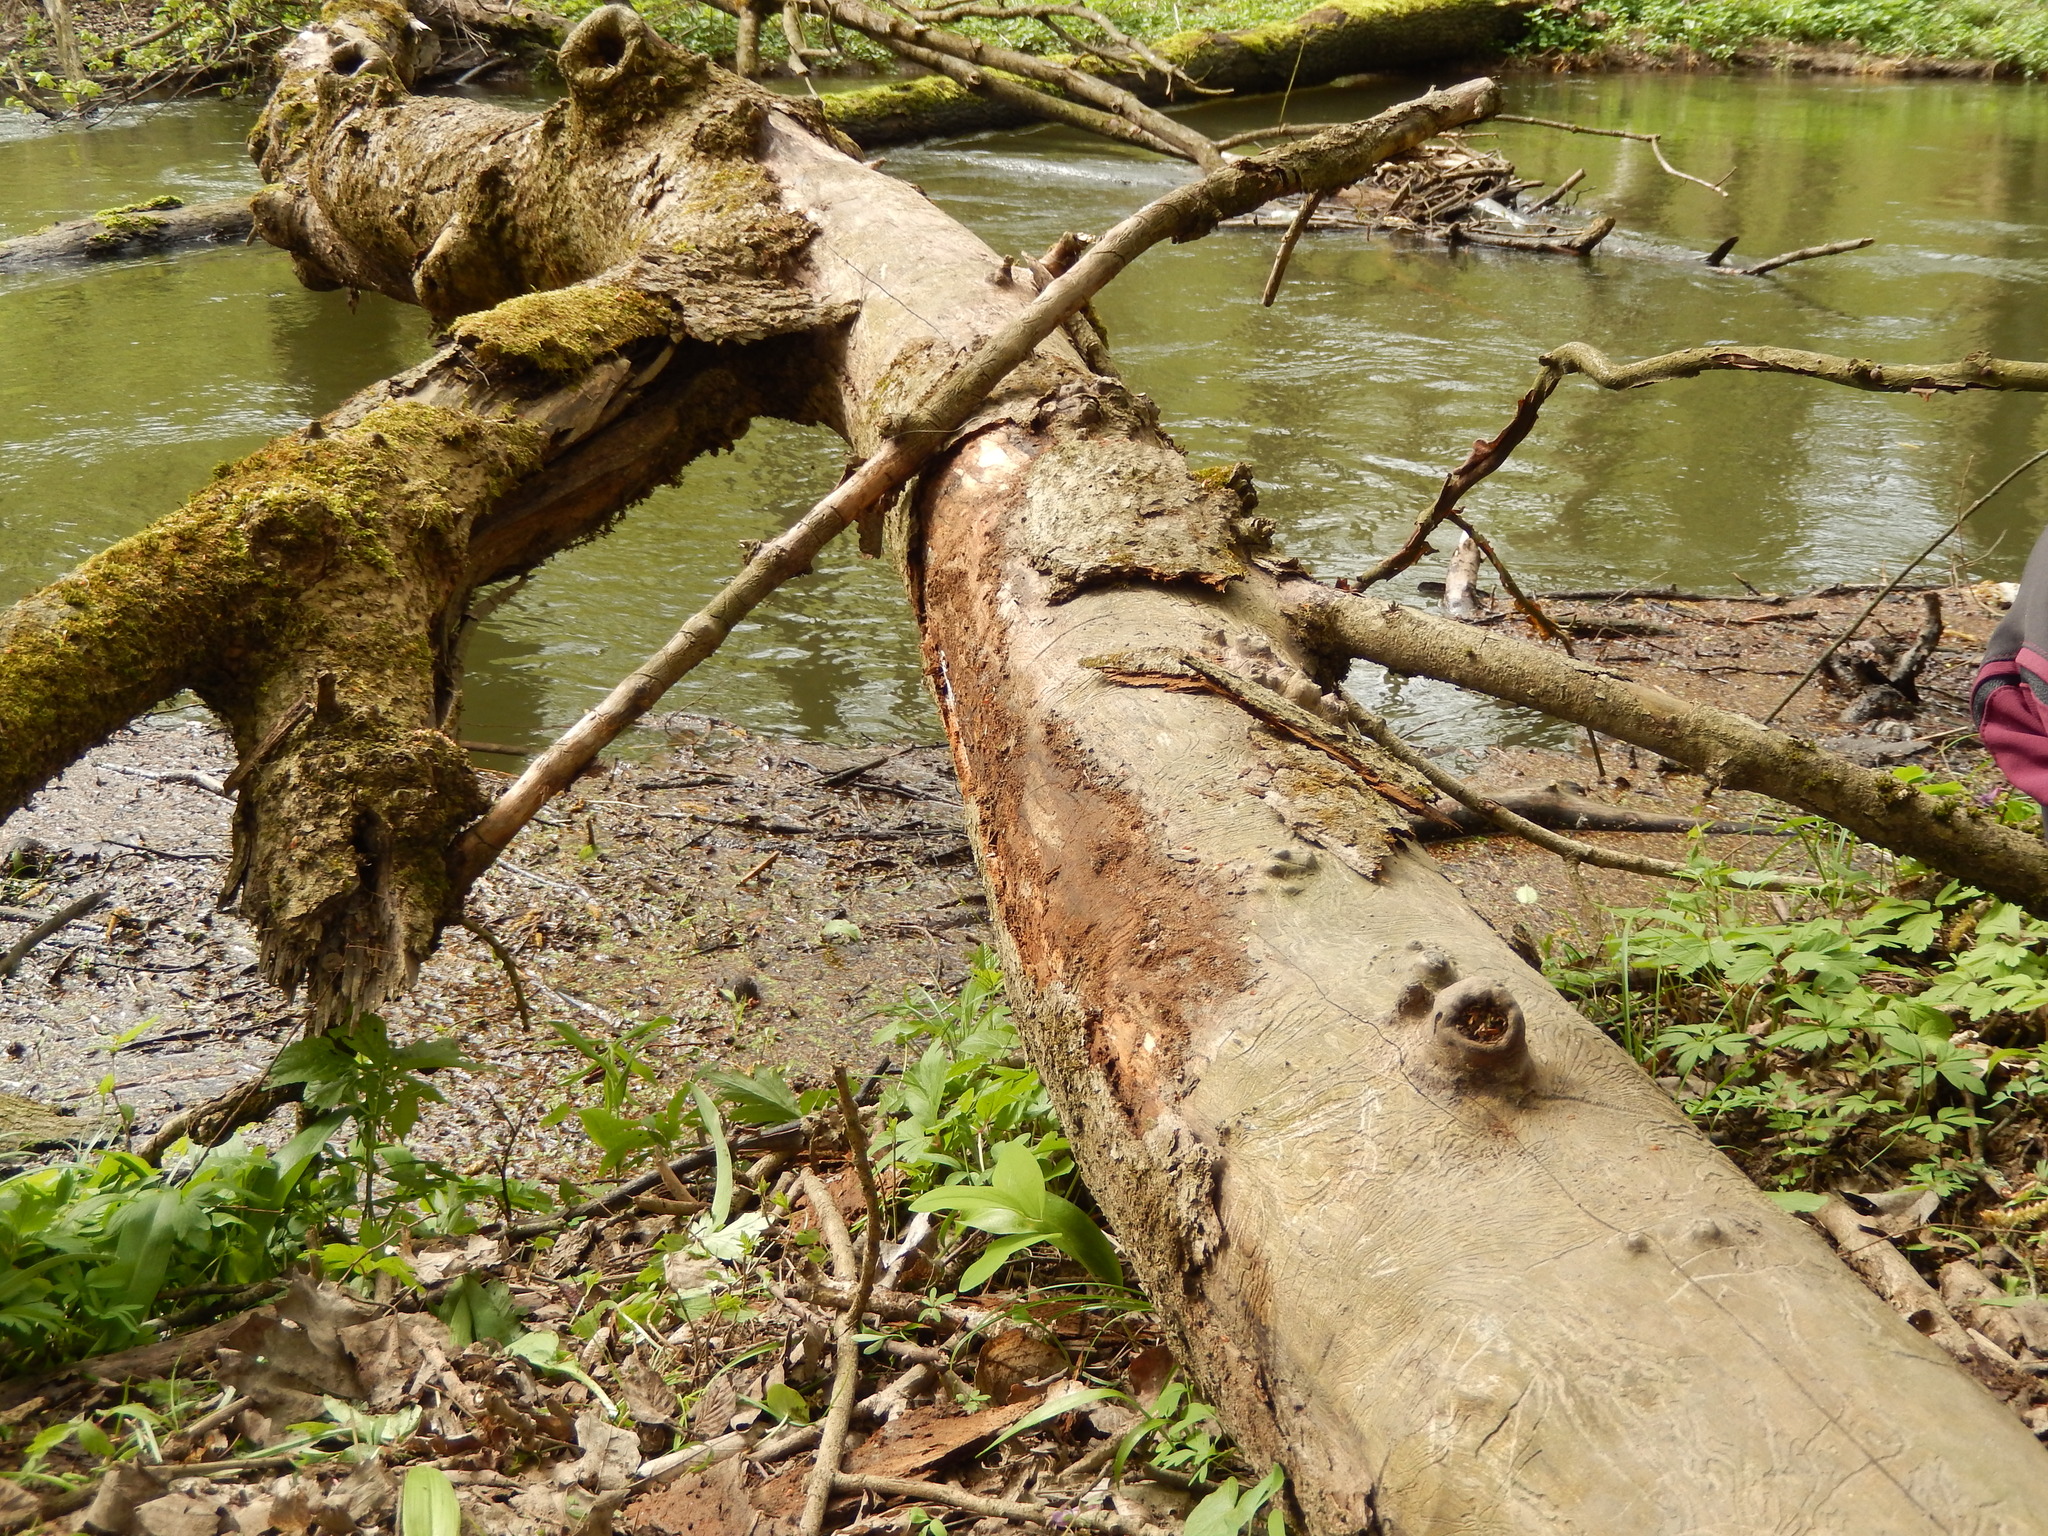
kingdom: Animalia
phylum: Arthropoda
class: Insecta
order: Hymenoptera
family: Formicidae
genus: Lasius
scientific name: Lasius brunneus
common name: Brown ant
